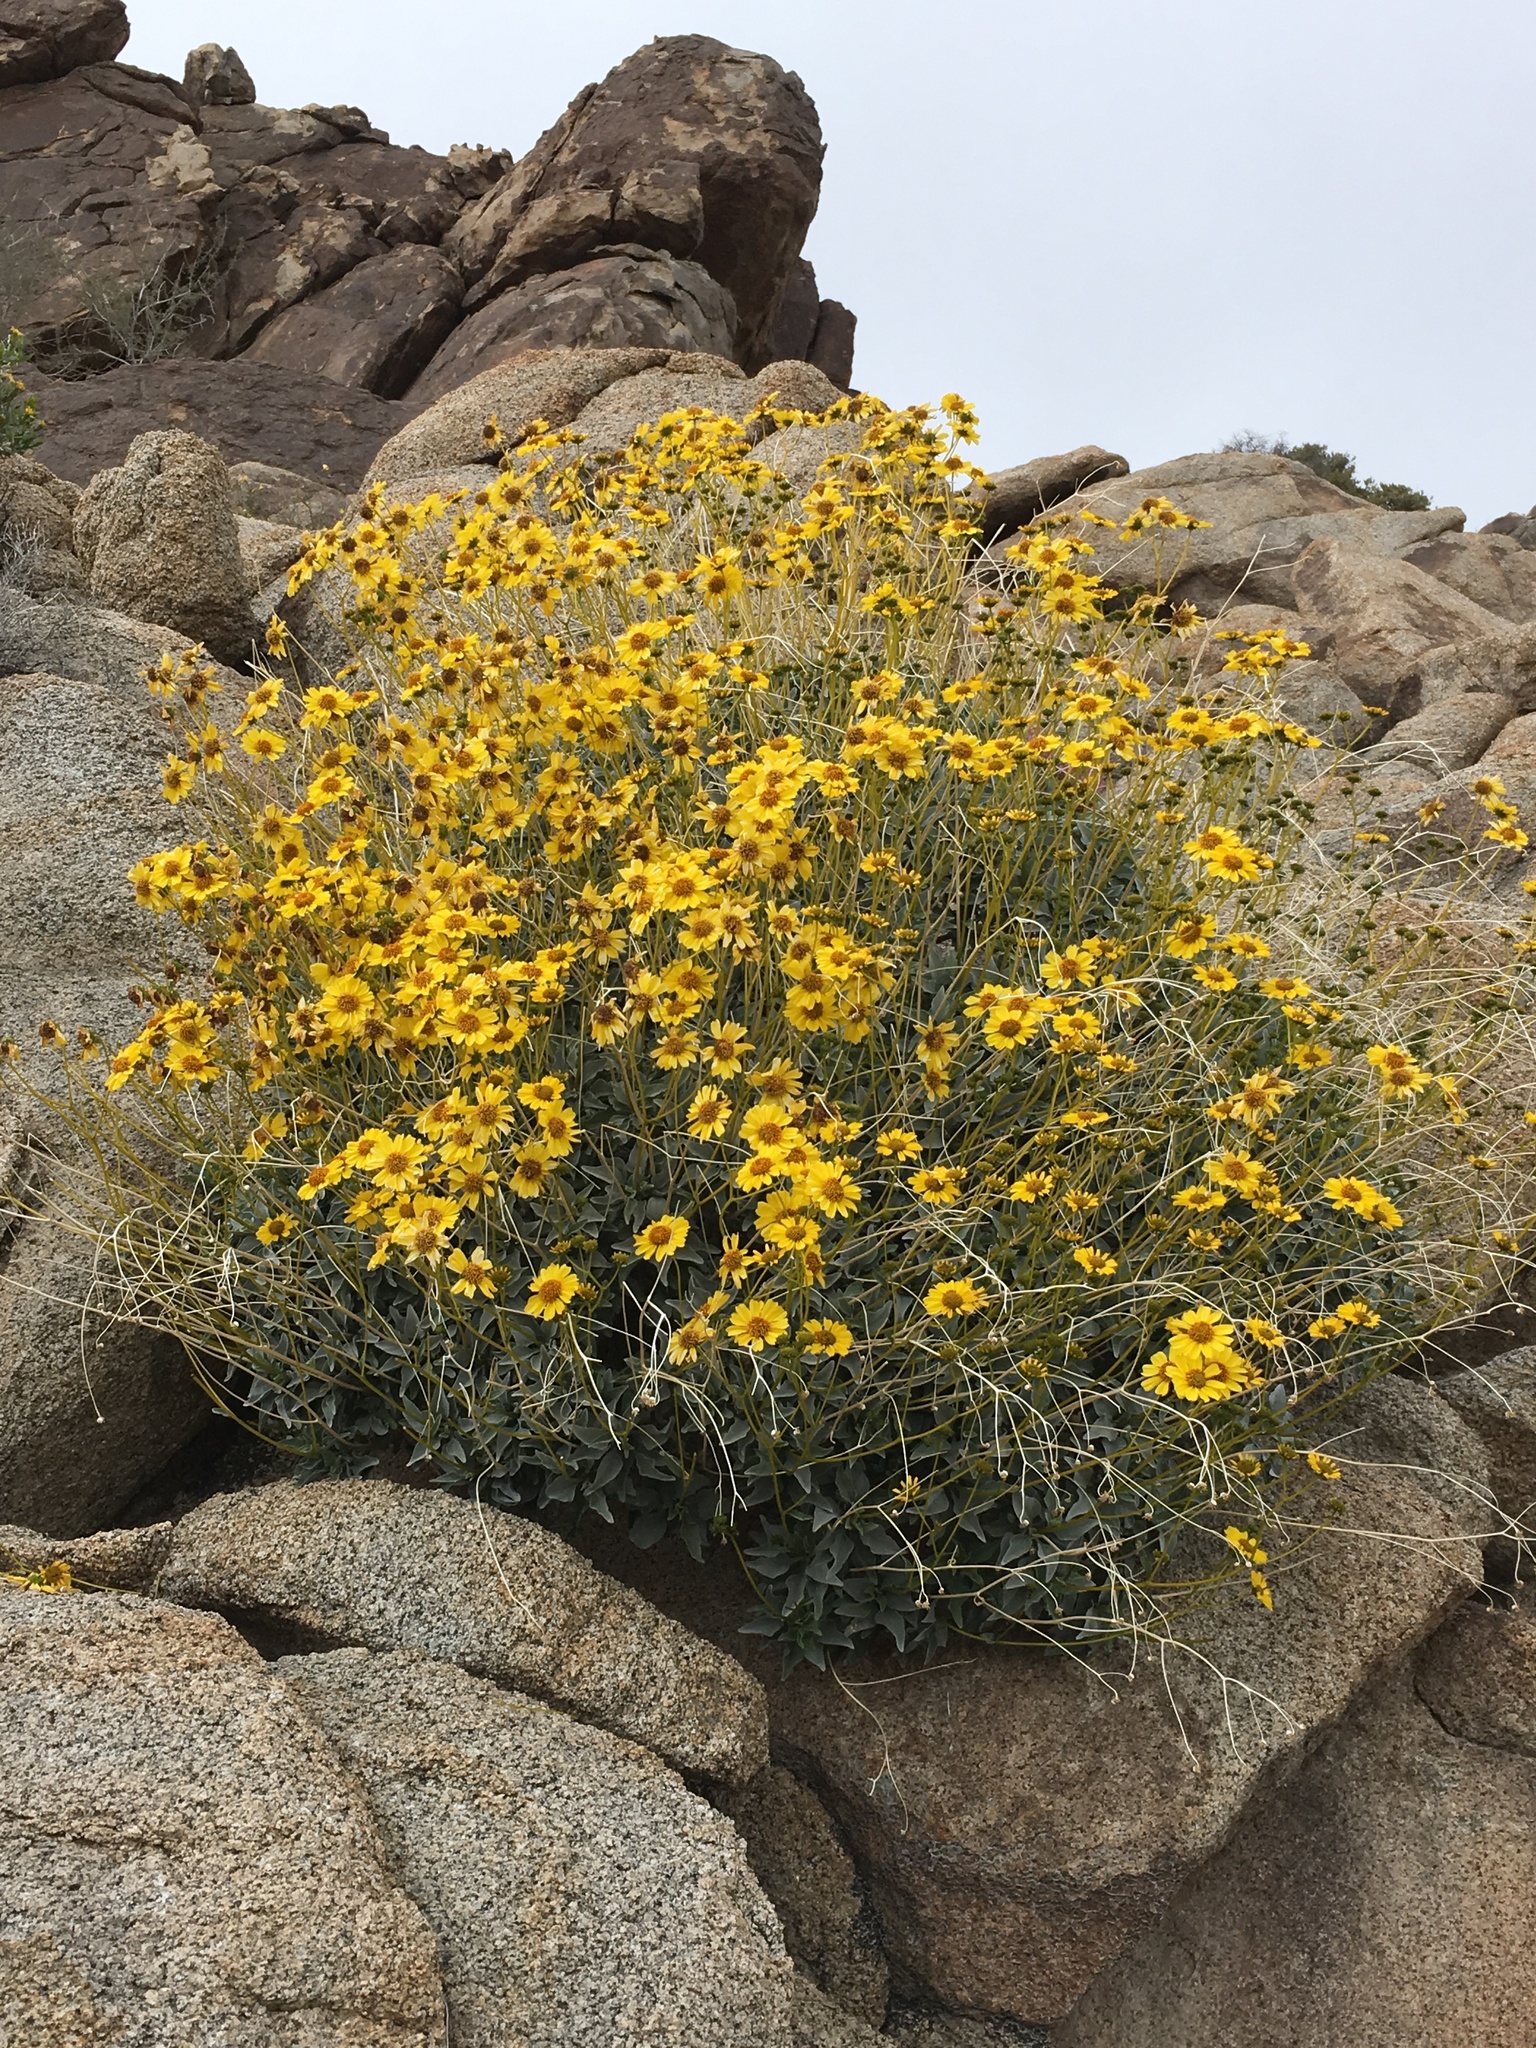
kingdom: Plantae
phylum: Tracheophyta
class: Magnoliopsida
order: Asterales
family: Asteraceae
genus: Encelia
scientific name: Encelia farinosa
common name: Brittlebush
